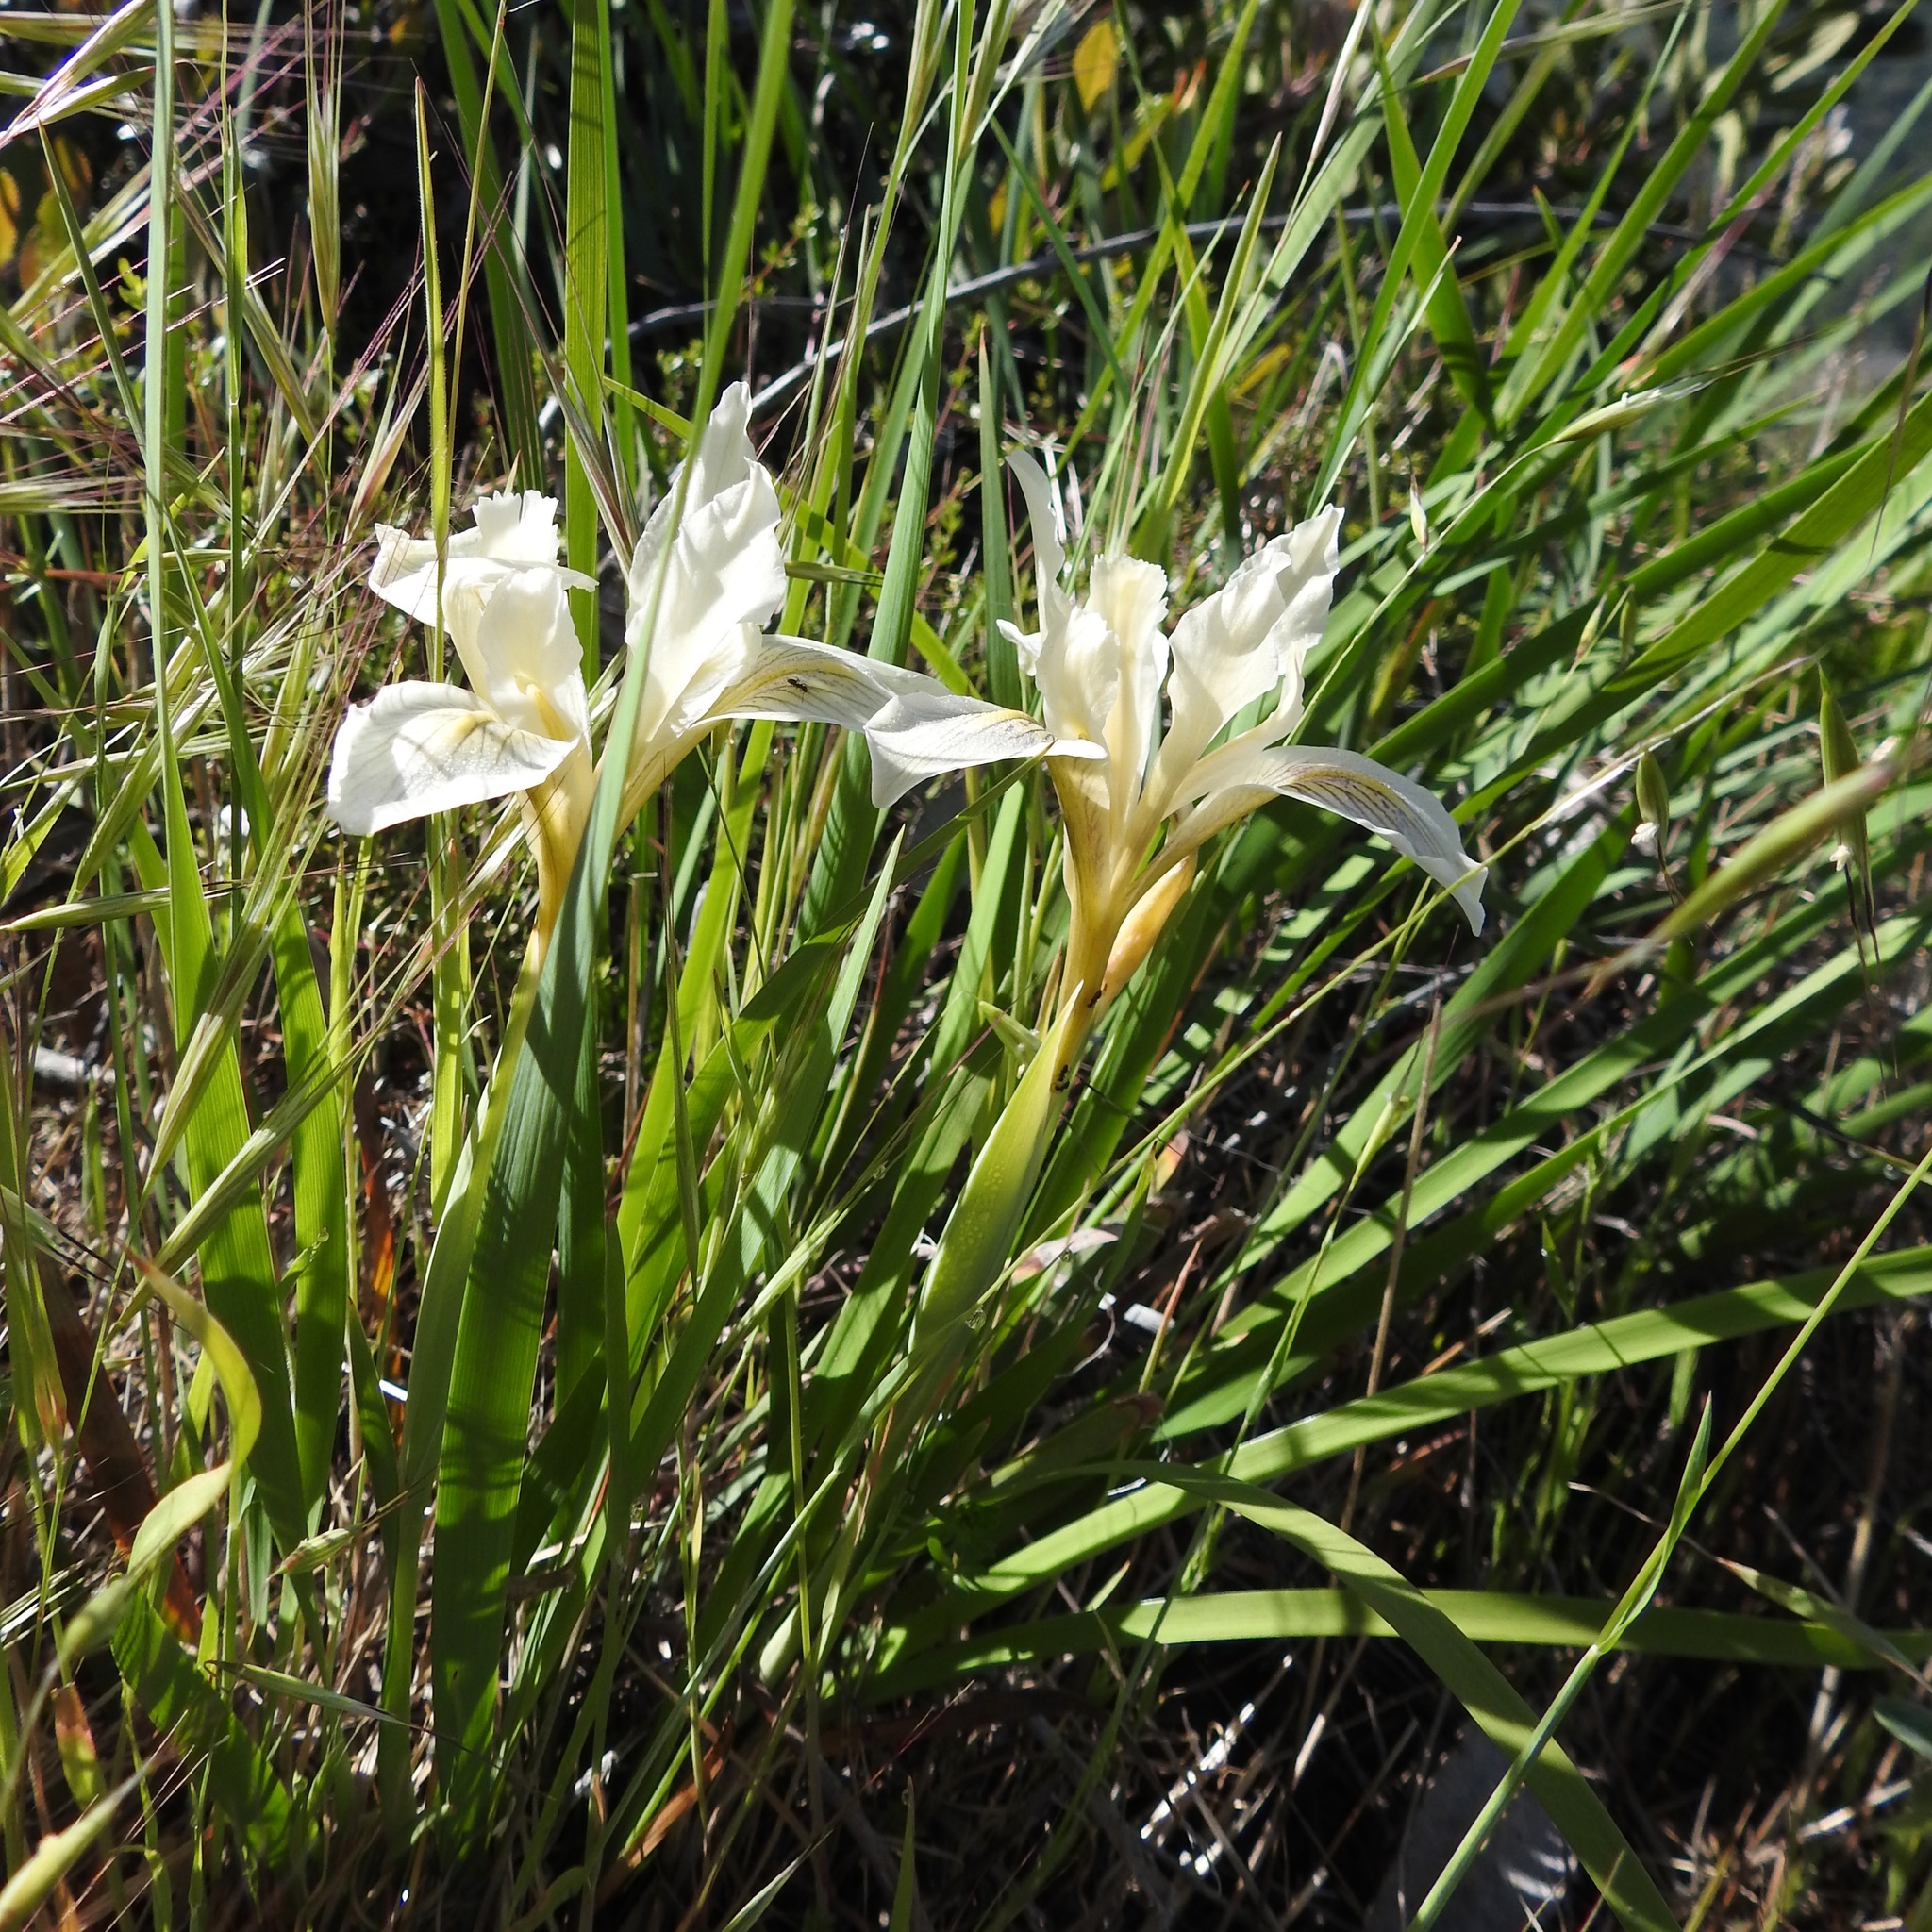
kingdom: Plantae
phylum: Tracheophyta
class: Liliopsida
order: Asparagales
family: Iridaceae
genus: Iris
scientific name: Iris fernaldii
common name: Fernald's iris
